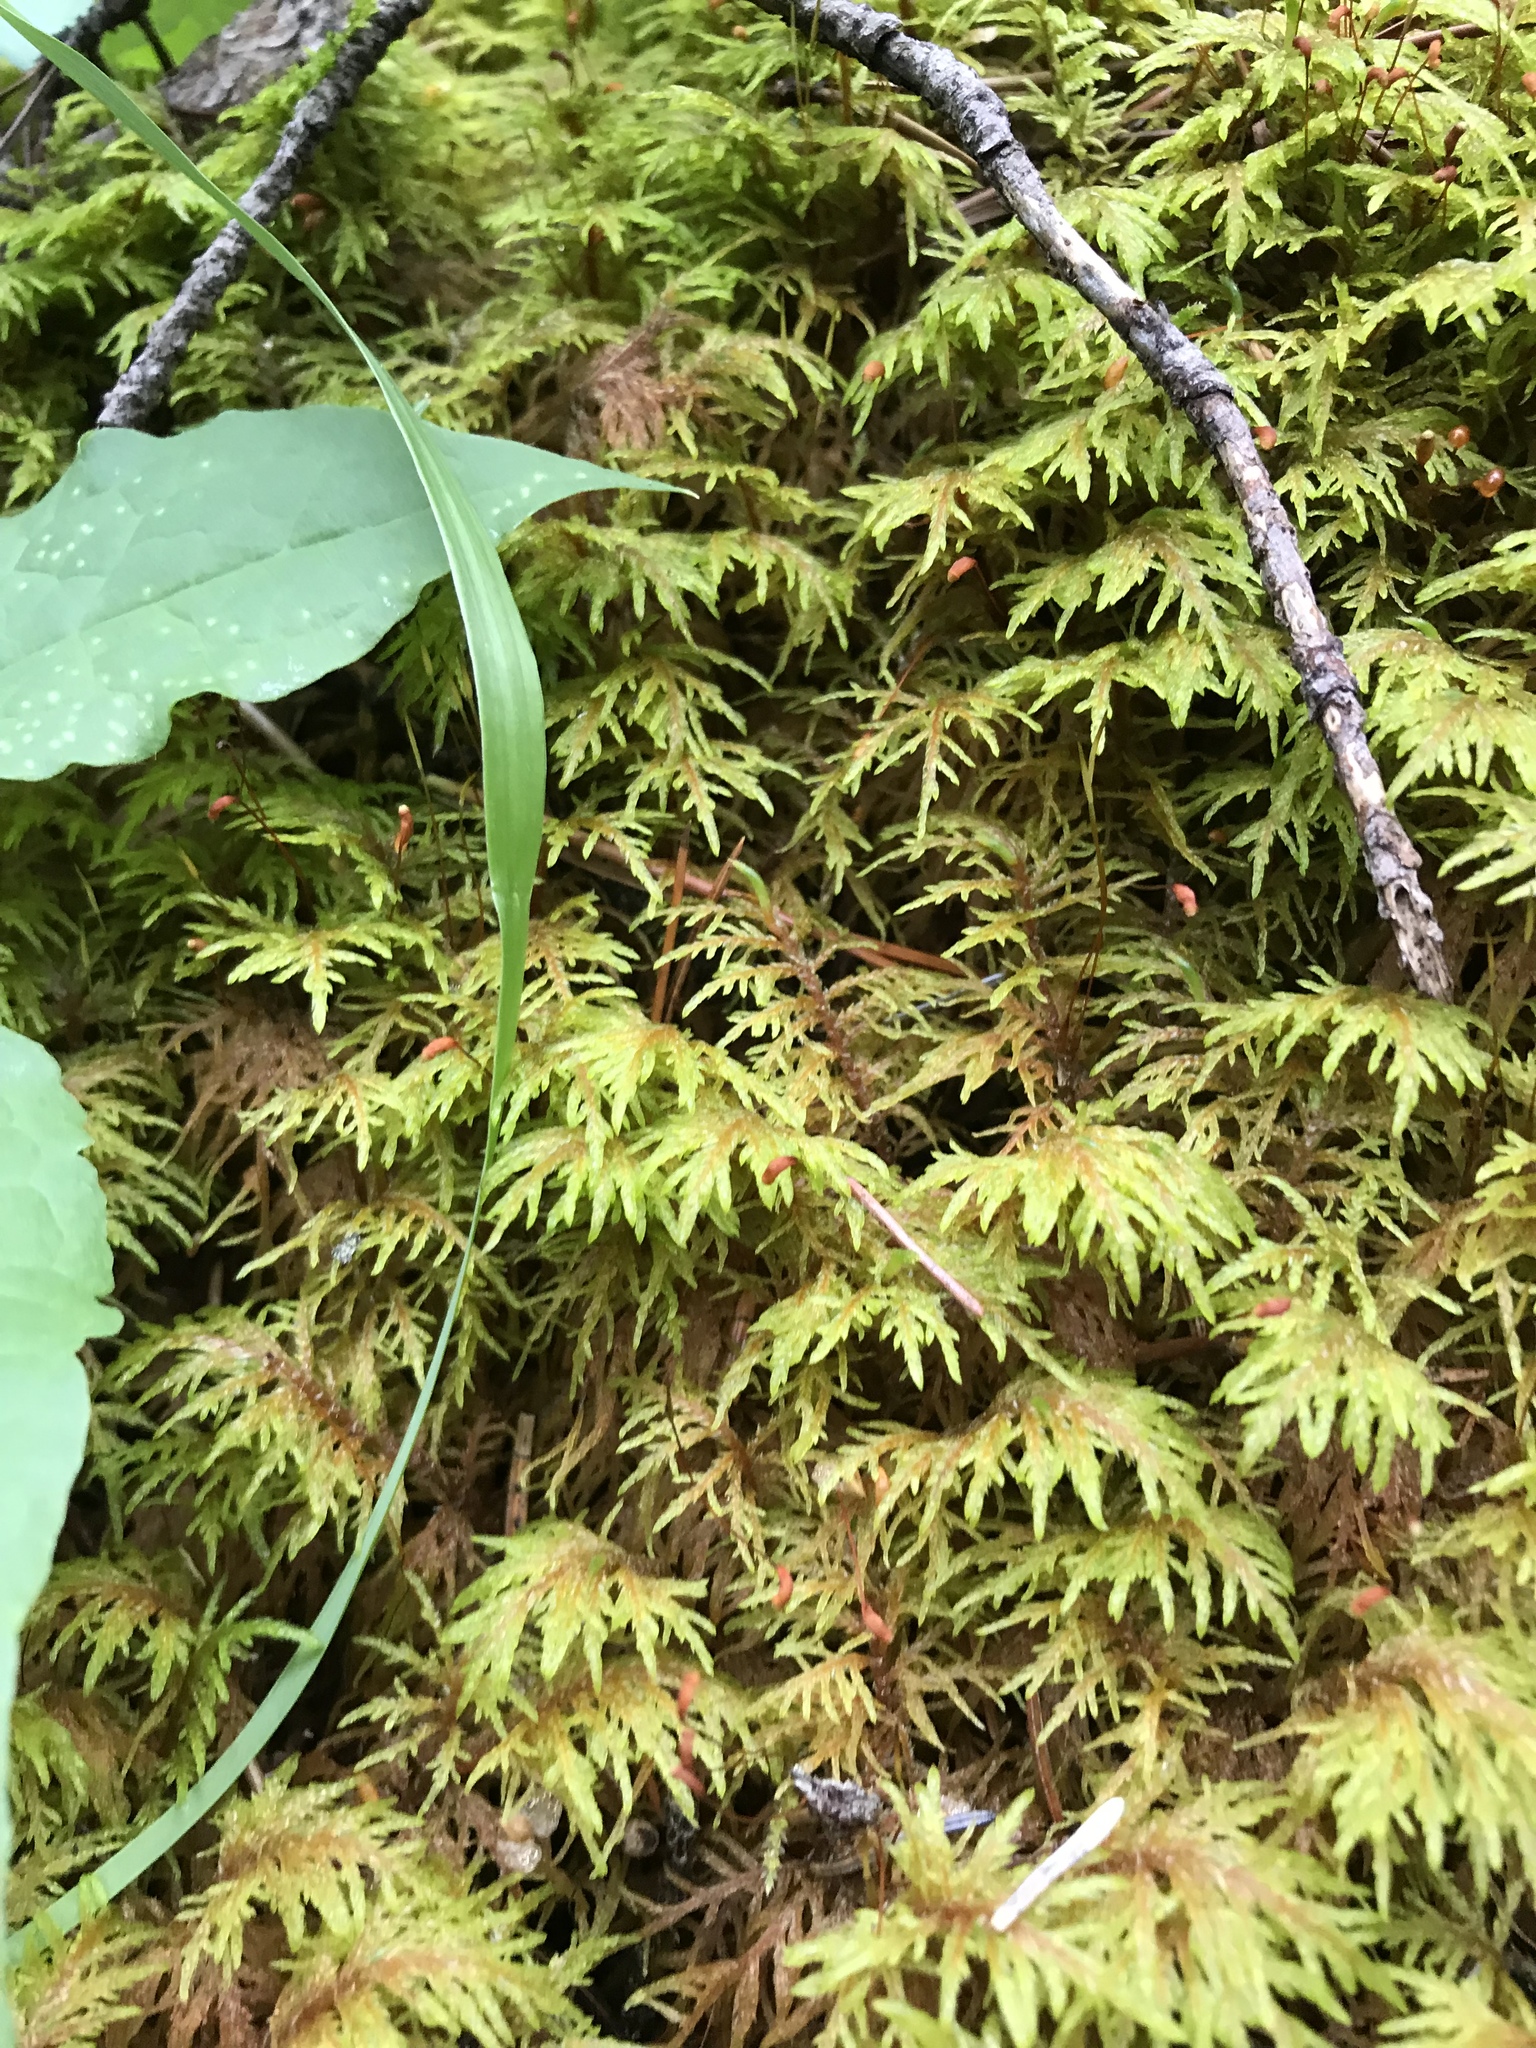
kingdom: Plantae
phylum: Bryophyta
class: Bryopsida
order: Hypnales
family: Hylocomiaceae
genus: Hylocomium
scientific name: Hylocomium splendens
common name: Stairstep moss
